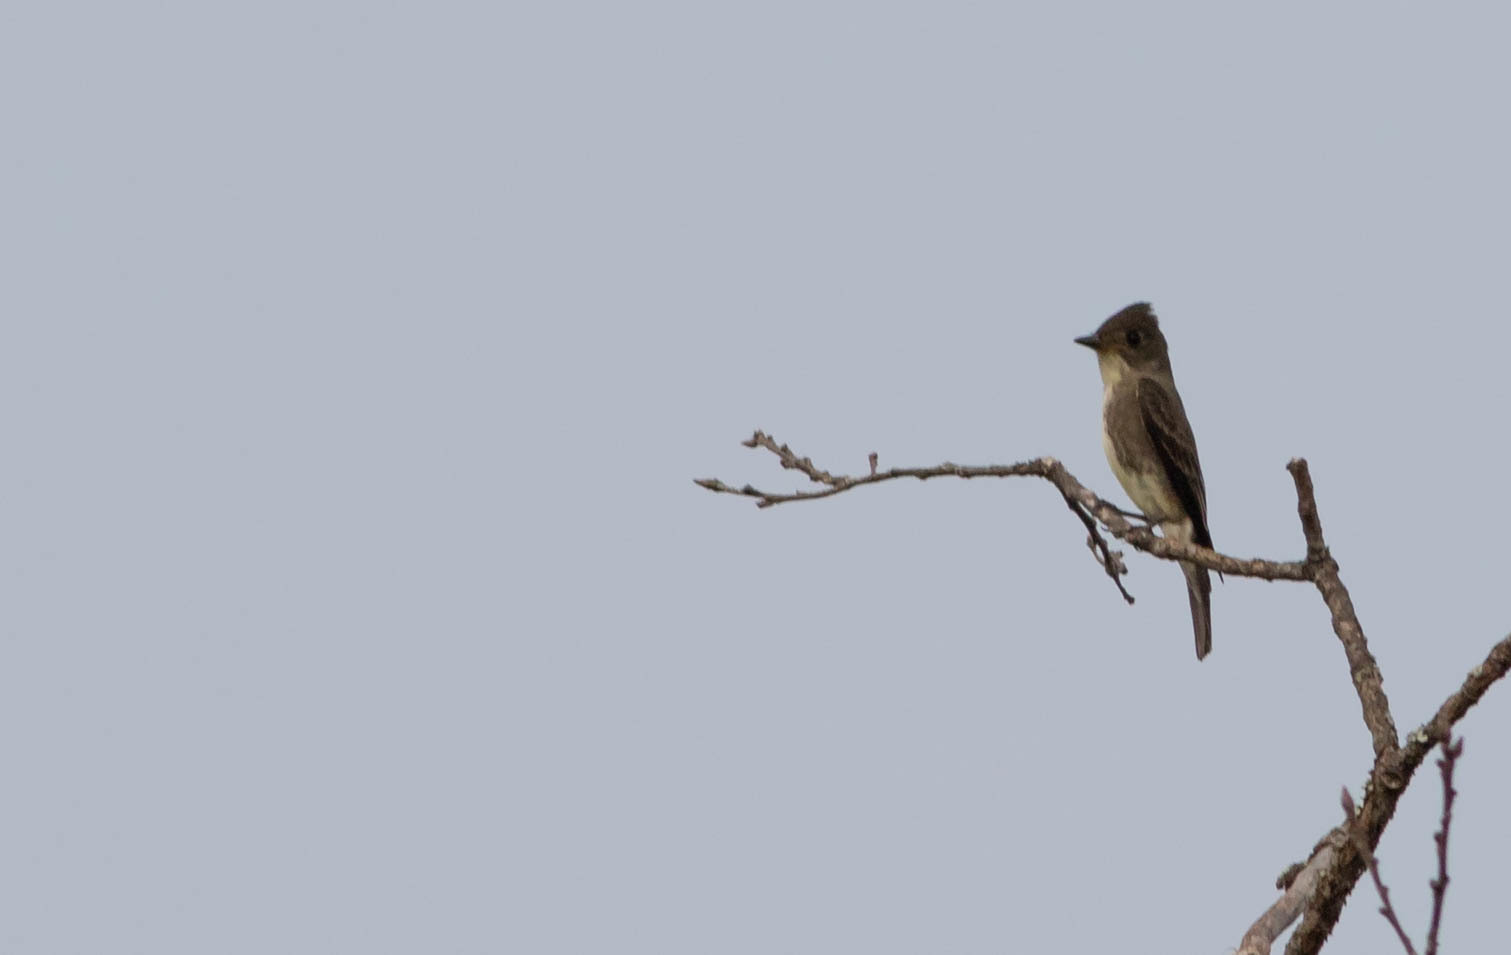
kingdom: Animalia
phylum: Chordata
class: Aves
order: Passeriformes
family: Tyrannidae
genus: Contopus
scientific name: Contopus cooperi
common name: Olive-sided flycatcher
